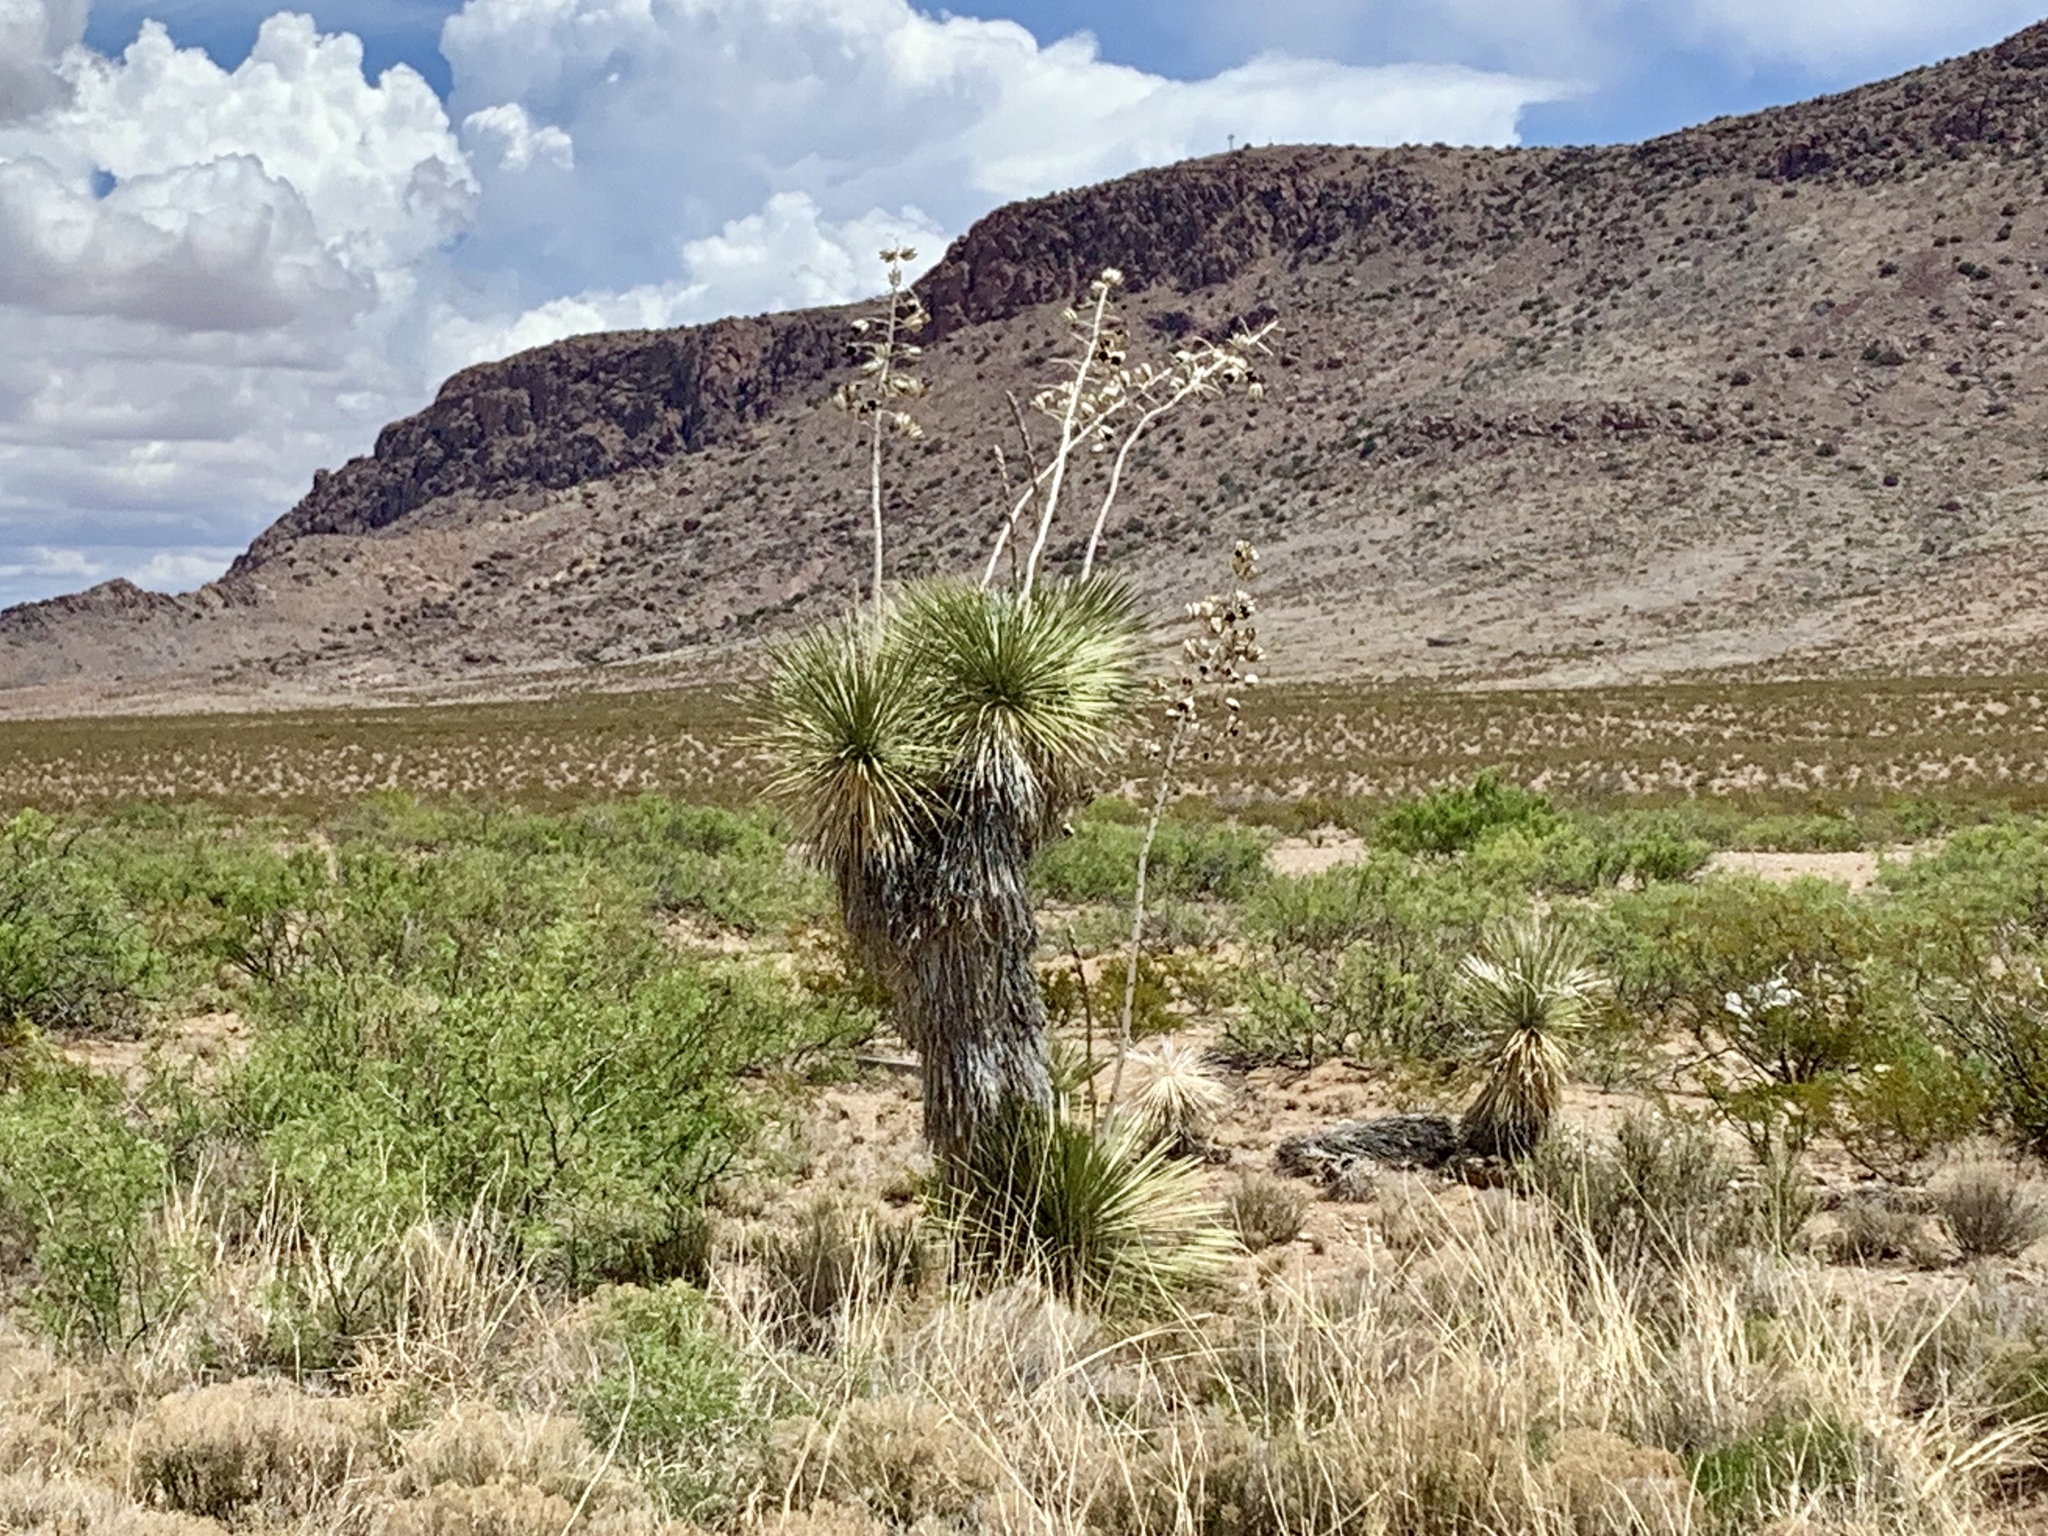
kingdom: Plantae
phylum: Tracheophyta
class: Liliopsida
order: Asparagales
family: Asparagaceae
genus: Yucca
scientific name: Yucca elata
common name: Palmella
